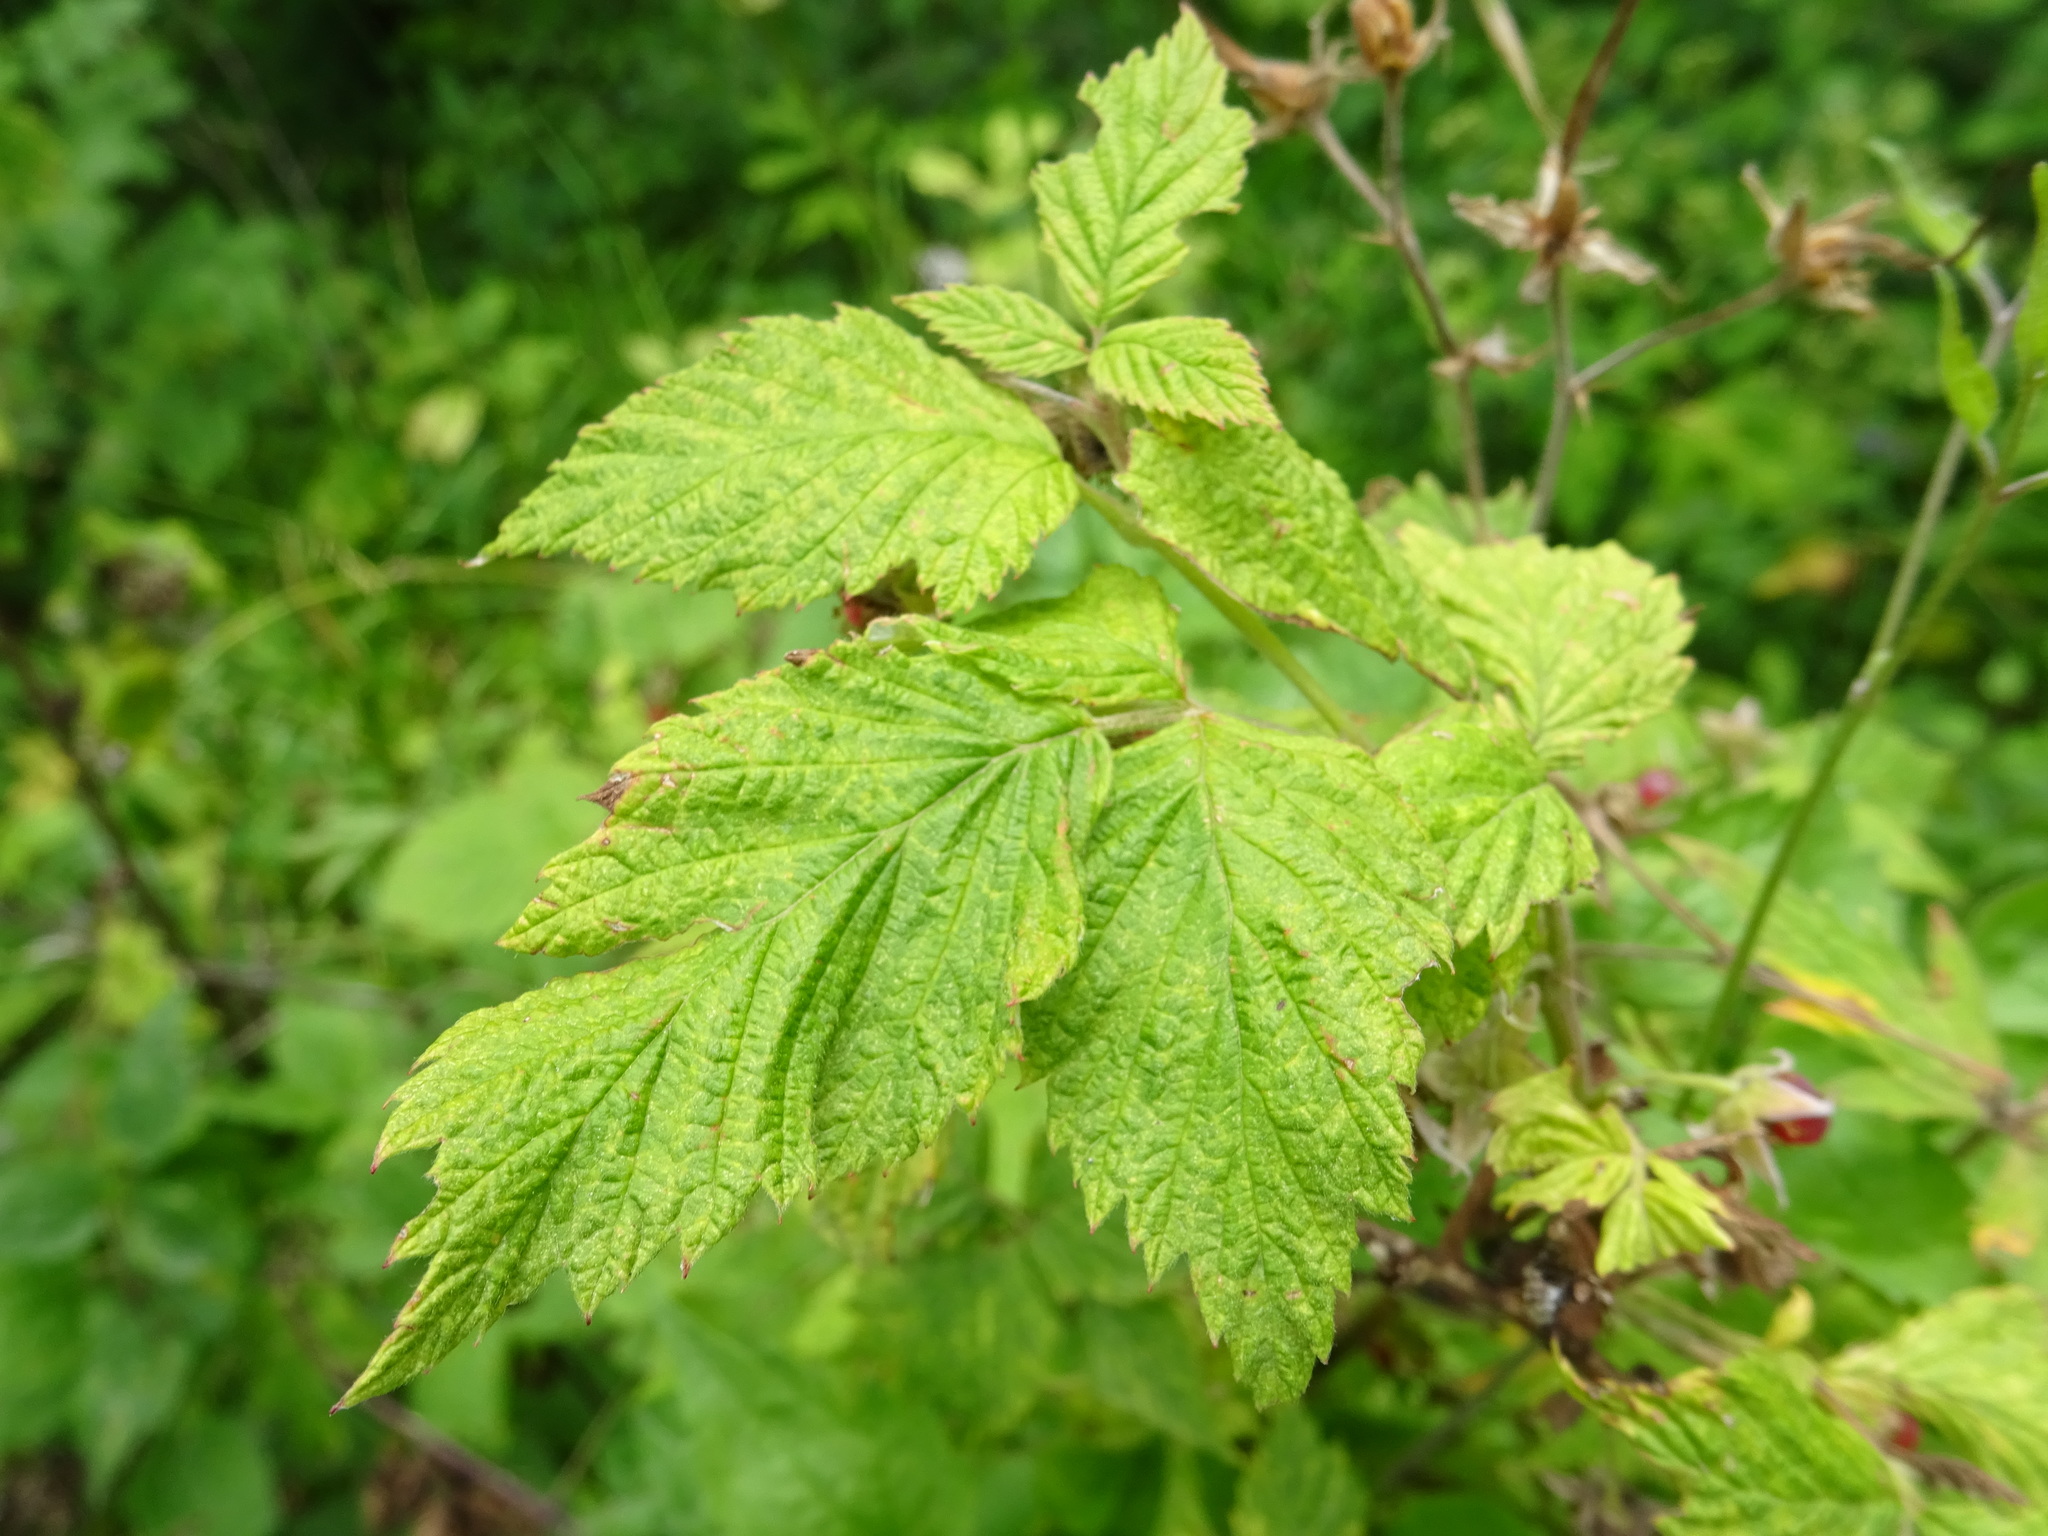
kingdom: Plantae
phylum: Tracheophyta
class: Magnoliopsida
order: Rosales
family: Rosaceae
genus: Rubus
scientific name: Rubus idaeus
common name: Raspberry
